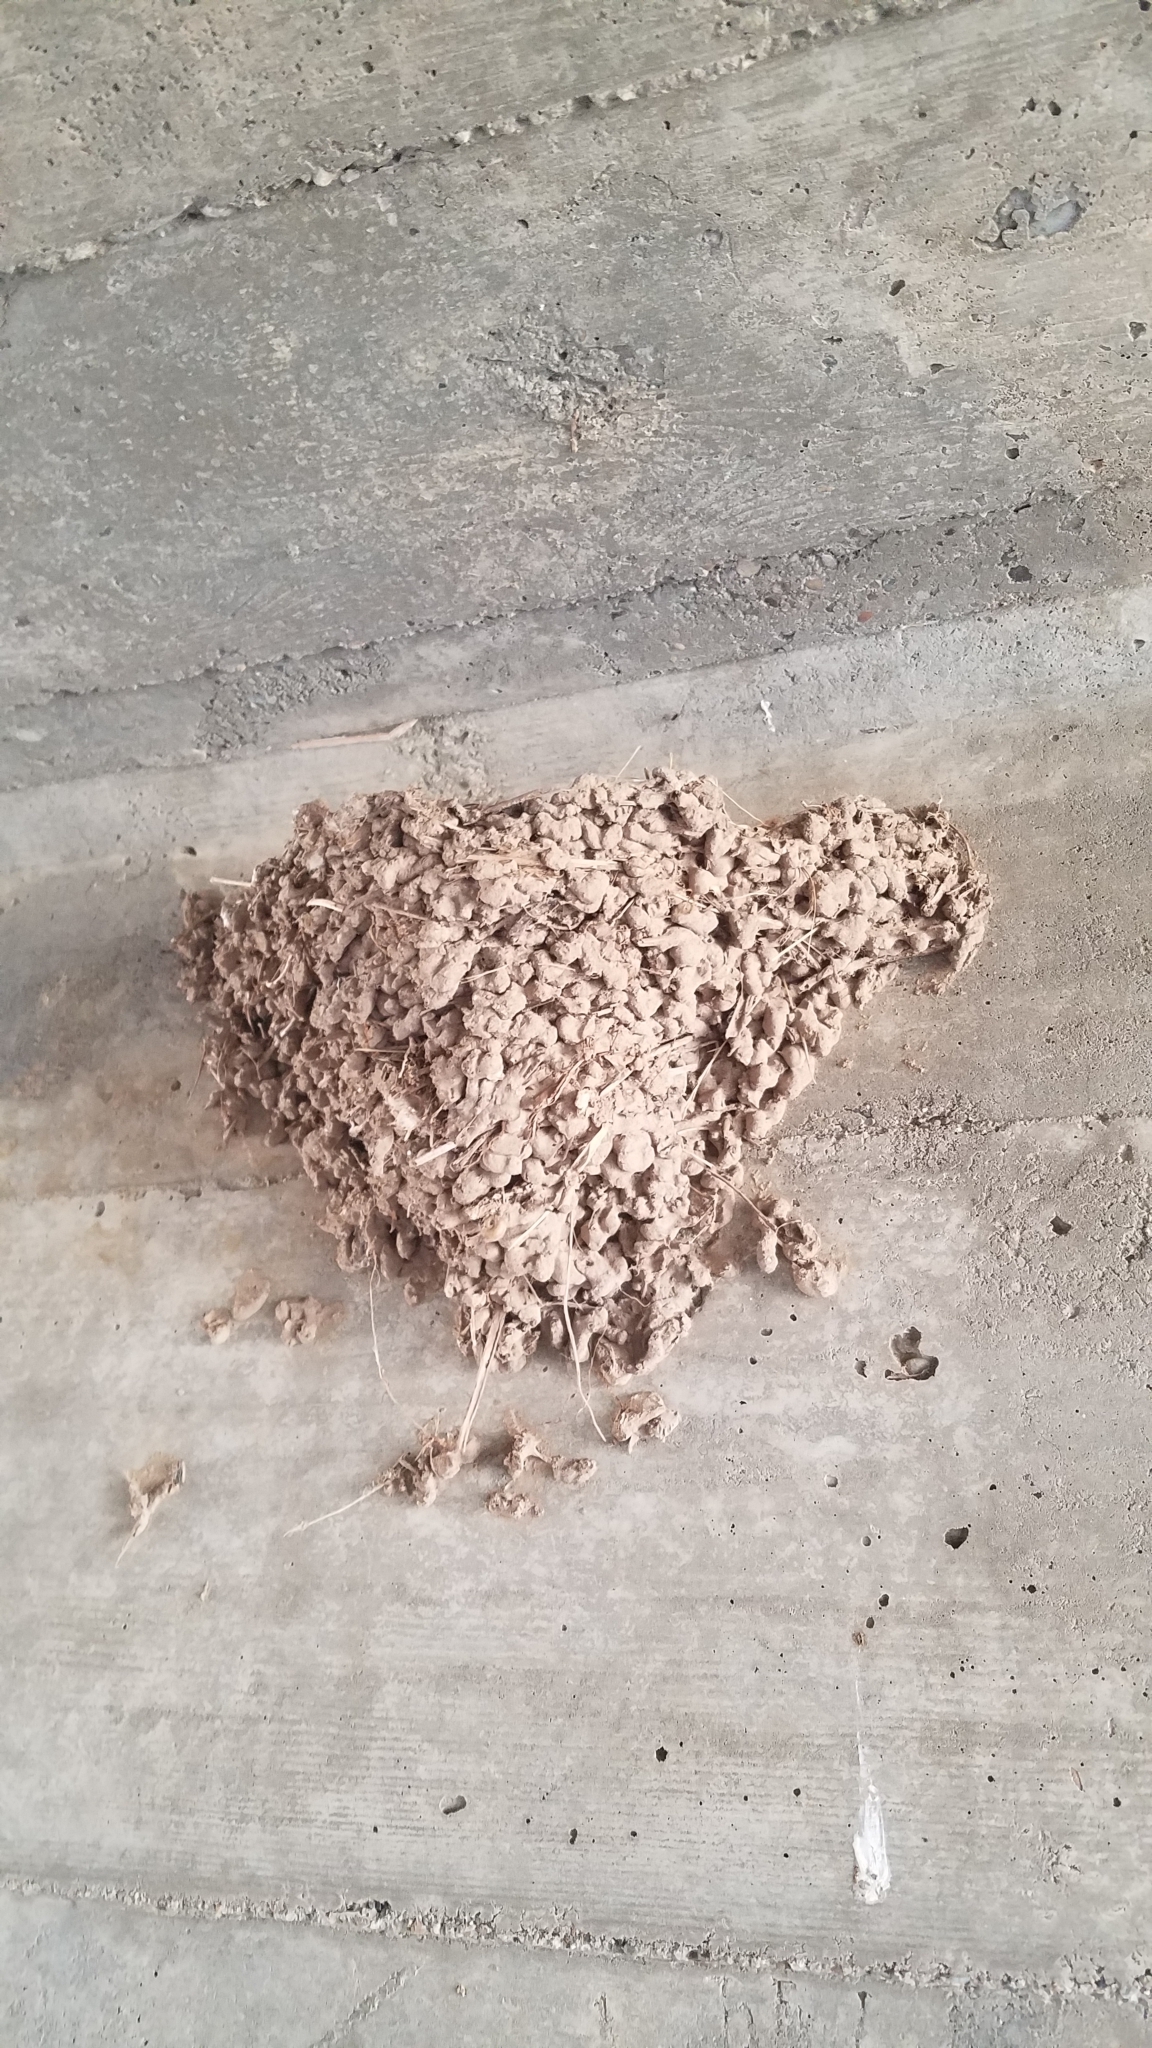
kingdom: Animalia
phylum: Chordata
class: Aves
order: Passeriformes
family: Hirundinidae
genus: Hirundo
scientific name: Hirundo rustica
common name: Barn swallow
